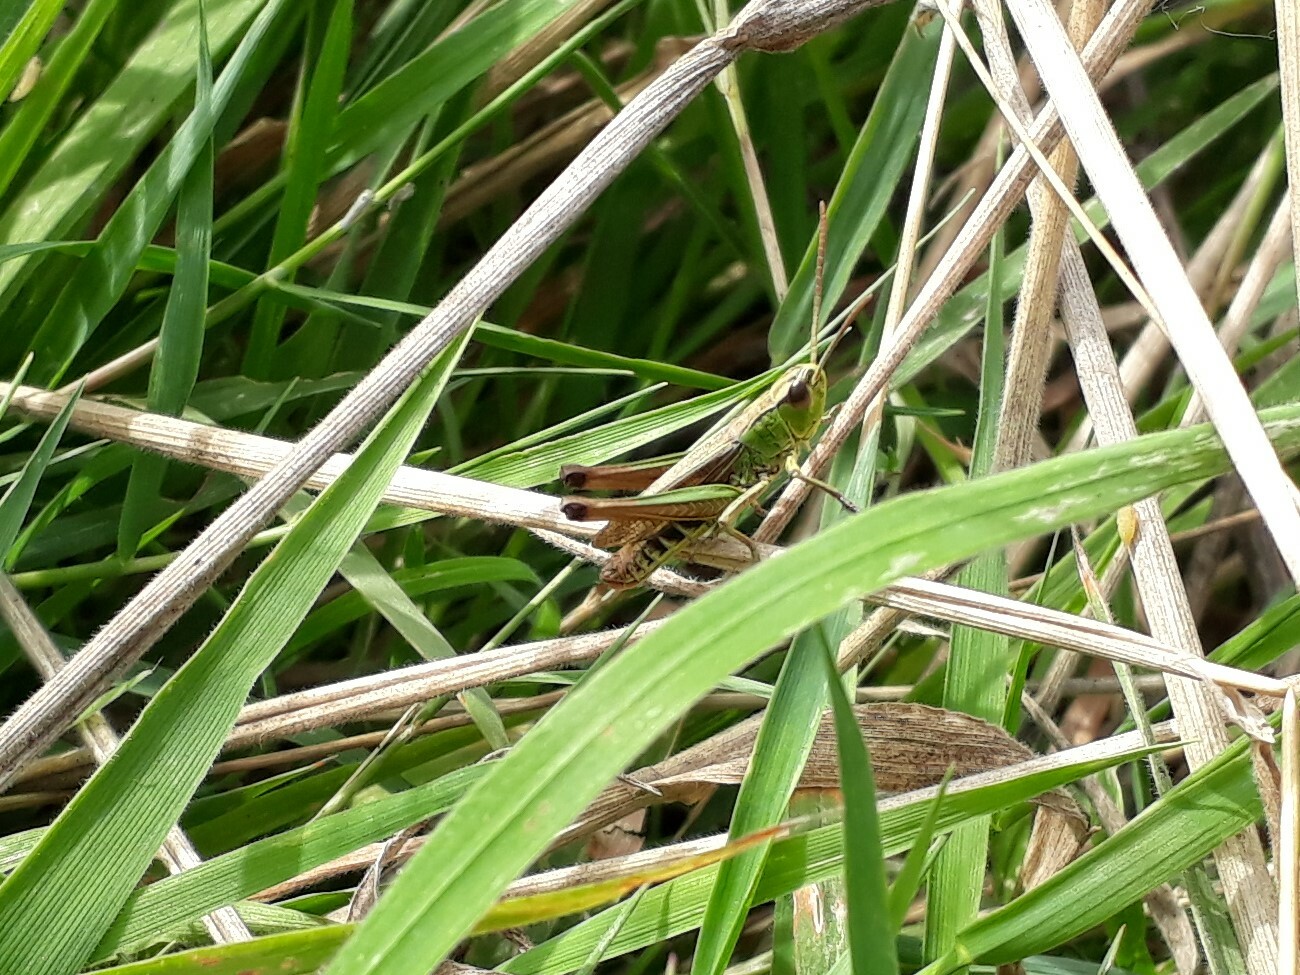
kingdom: Animalia
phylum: Arthropoda
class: Insecta
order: Orthoptera
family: Acrididae
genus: Pseudochorthippus
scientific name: Pseudochorthippus parallelus
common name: Meadow grasshopper
